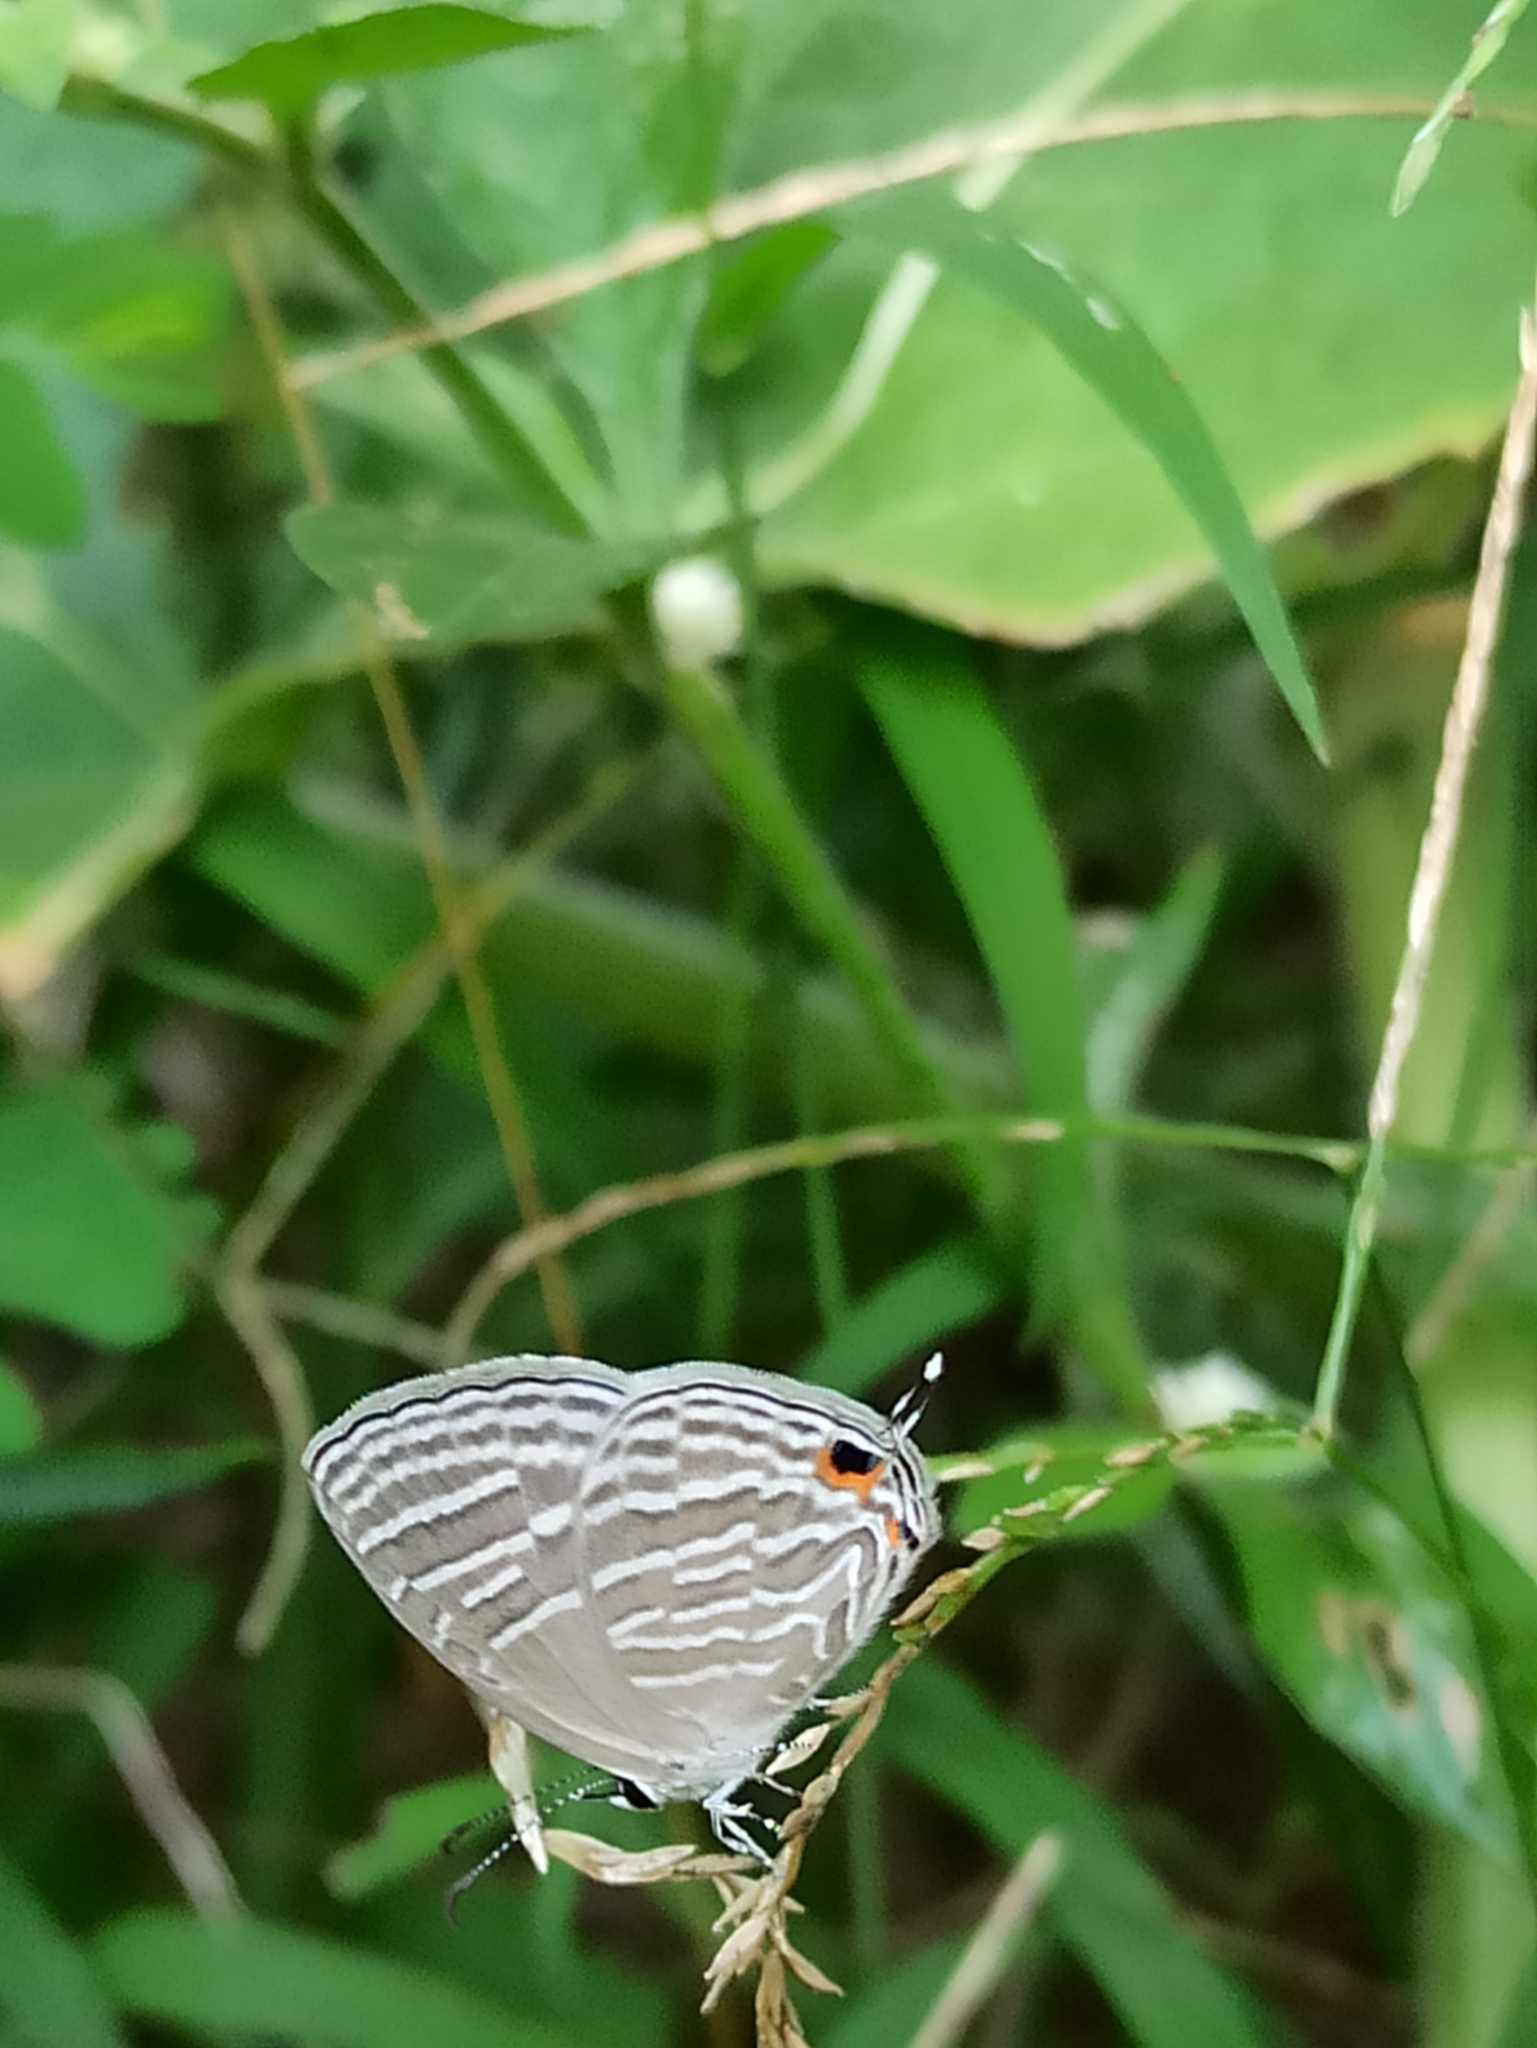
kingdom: Animalia
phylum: Arthropoda
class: Insecta
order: Lepidoptera
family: Lycaenidae
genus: Jamides
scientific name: Jamides celeno
